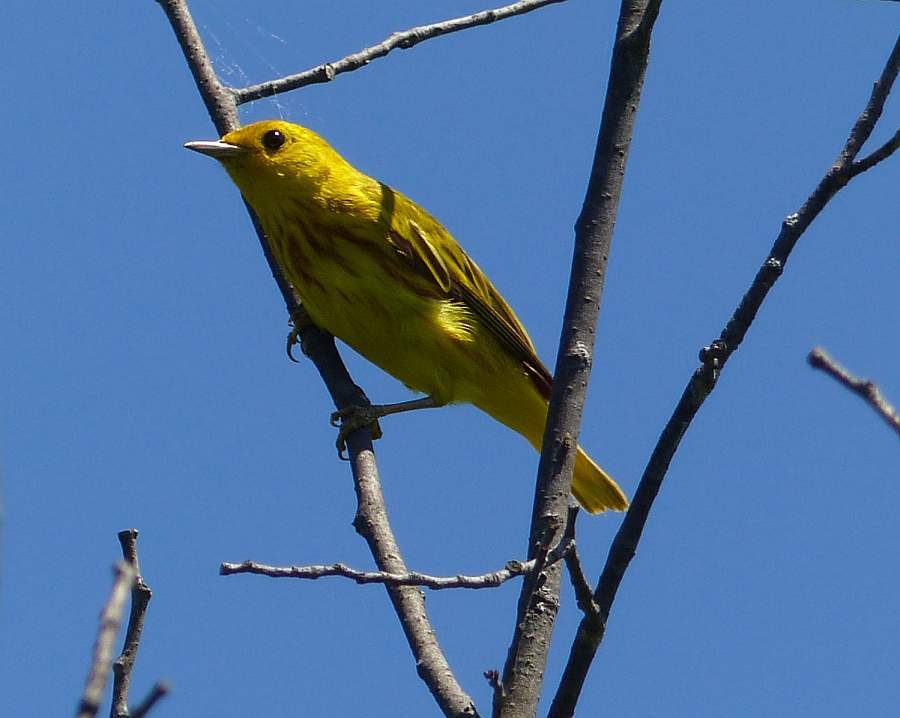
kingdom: Animalia
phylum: Chordata
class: Aves
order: Passeriformes
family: Parulidae
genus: Setophaga
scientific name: Setophaga petechia
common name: Yellow warbler
